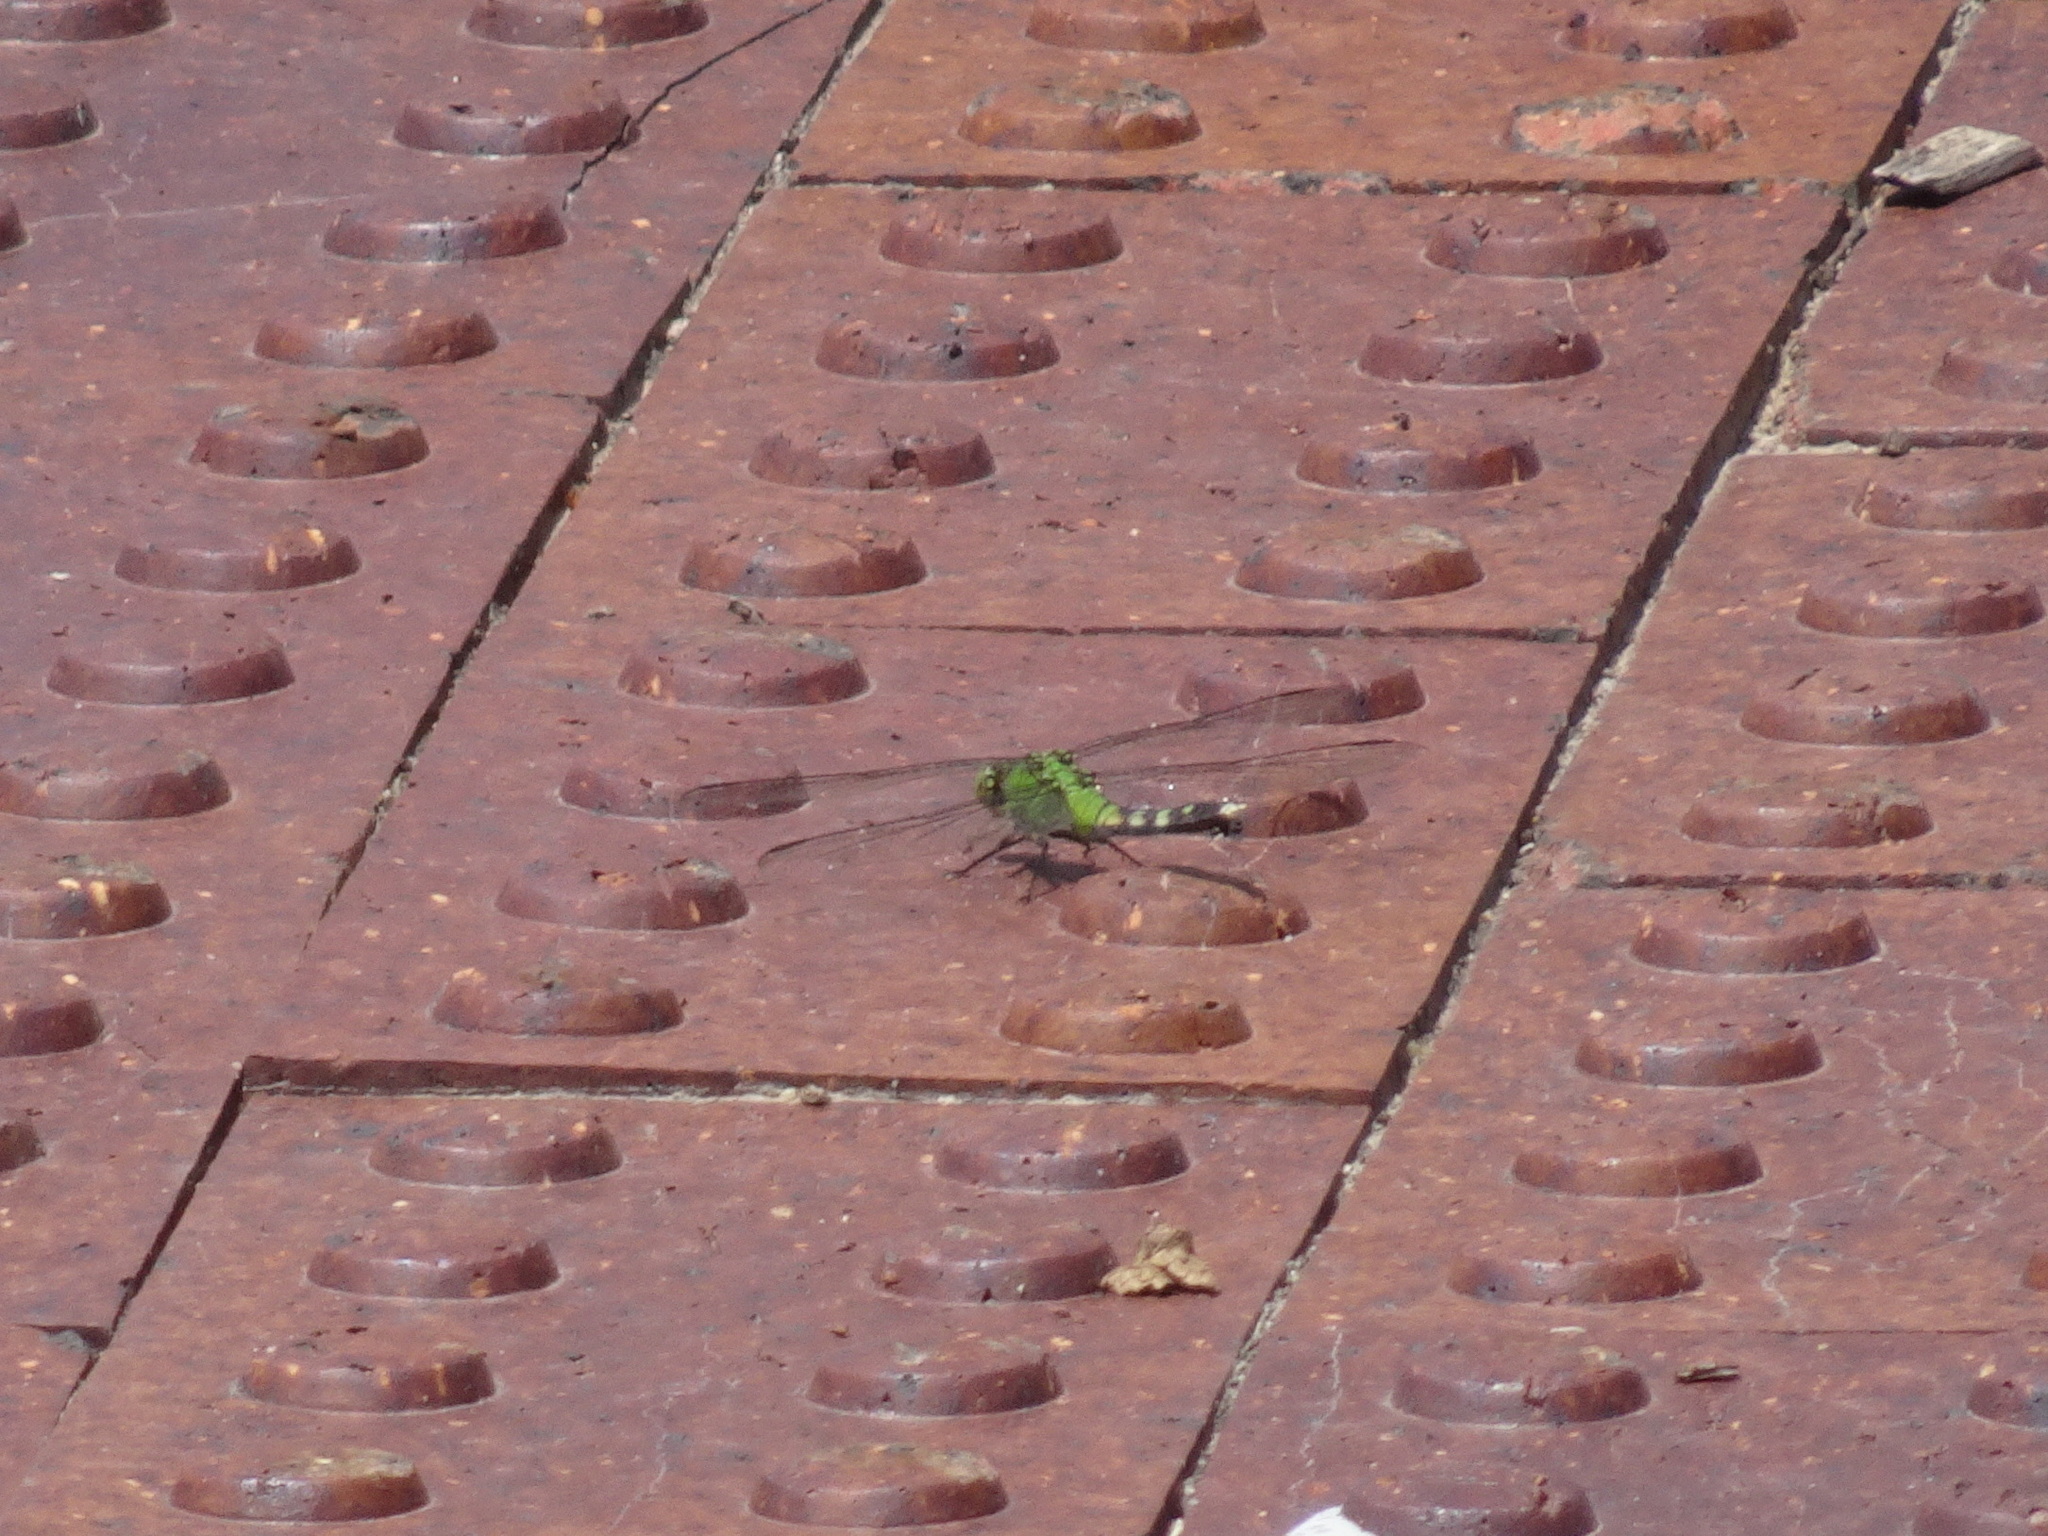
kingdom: Animalia
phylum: Arthropoda
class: Insecta
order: Odonata
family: Libellulidae
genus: Erythemis
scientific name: Erythemis simplicicollis
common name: Eastern pondhawk
